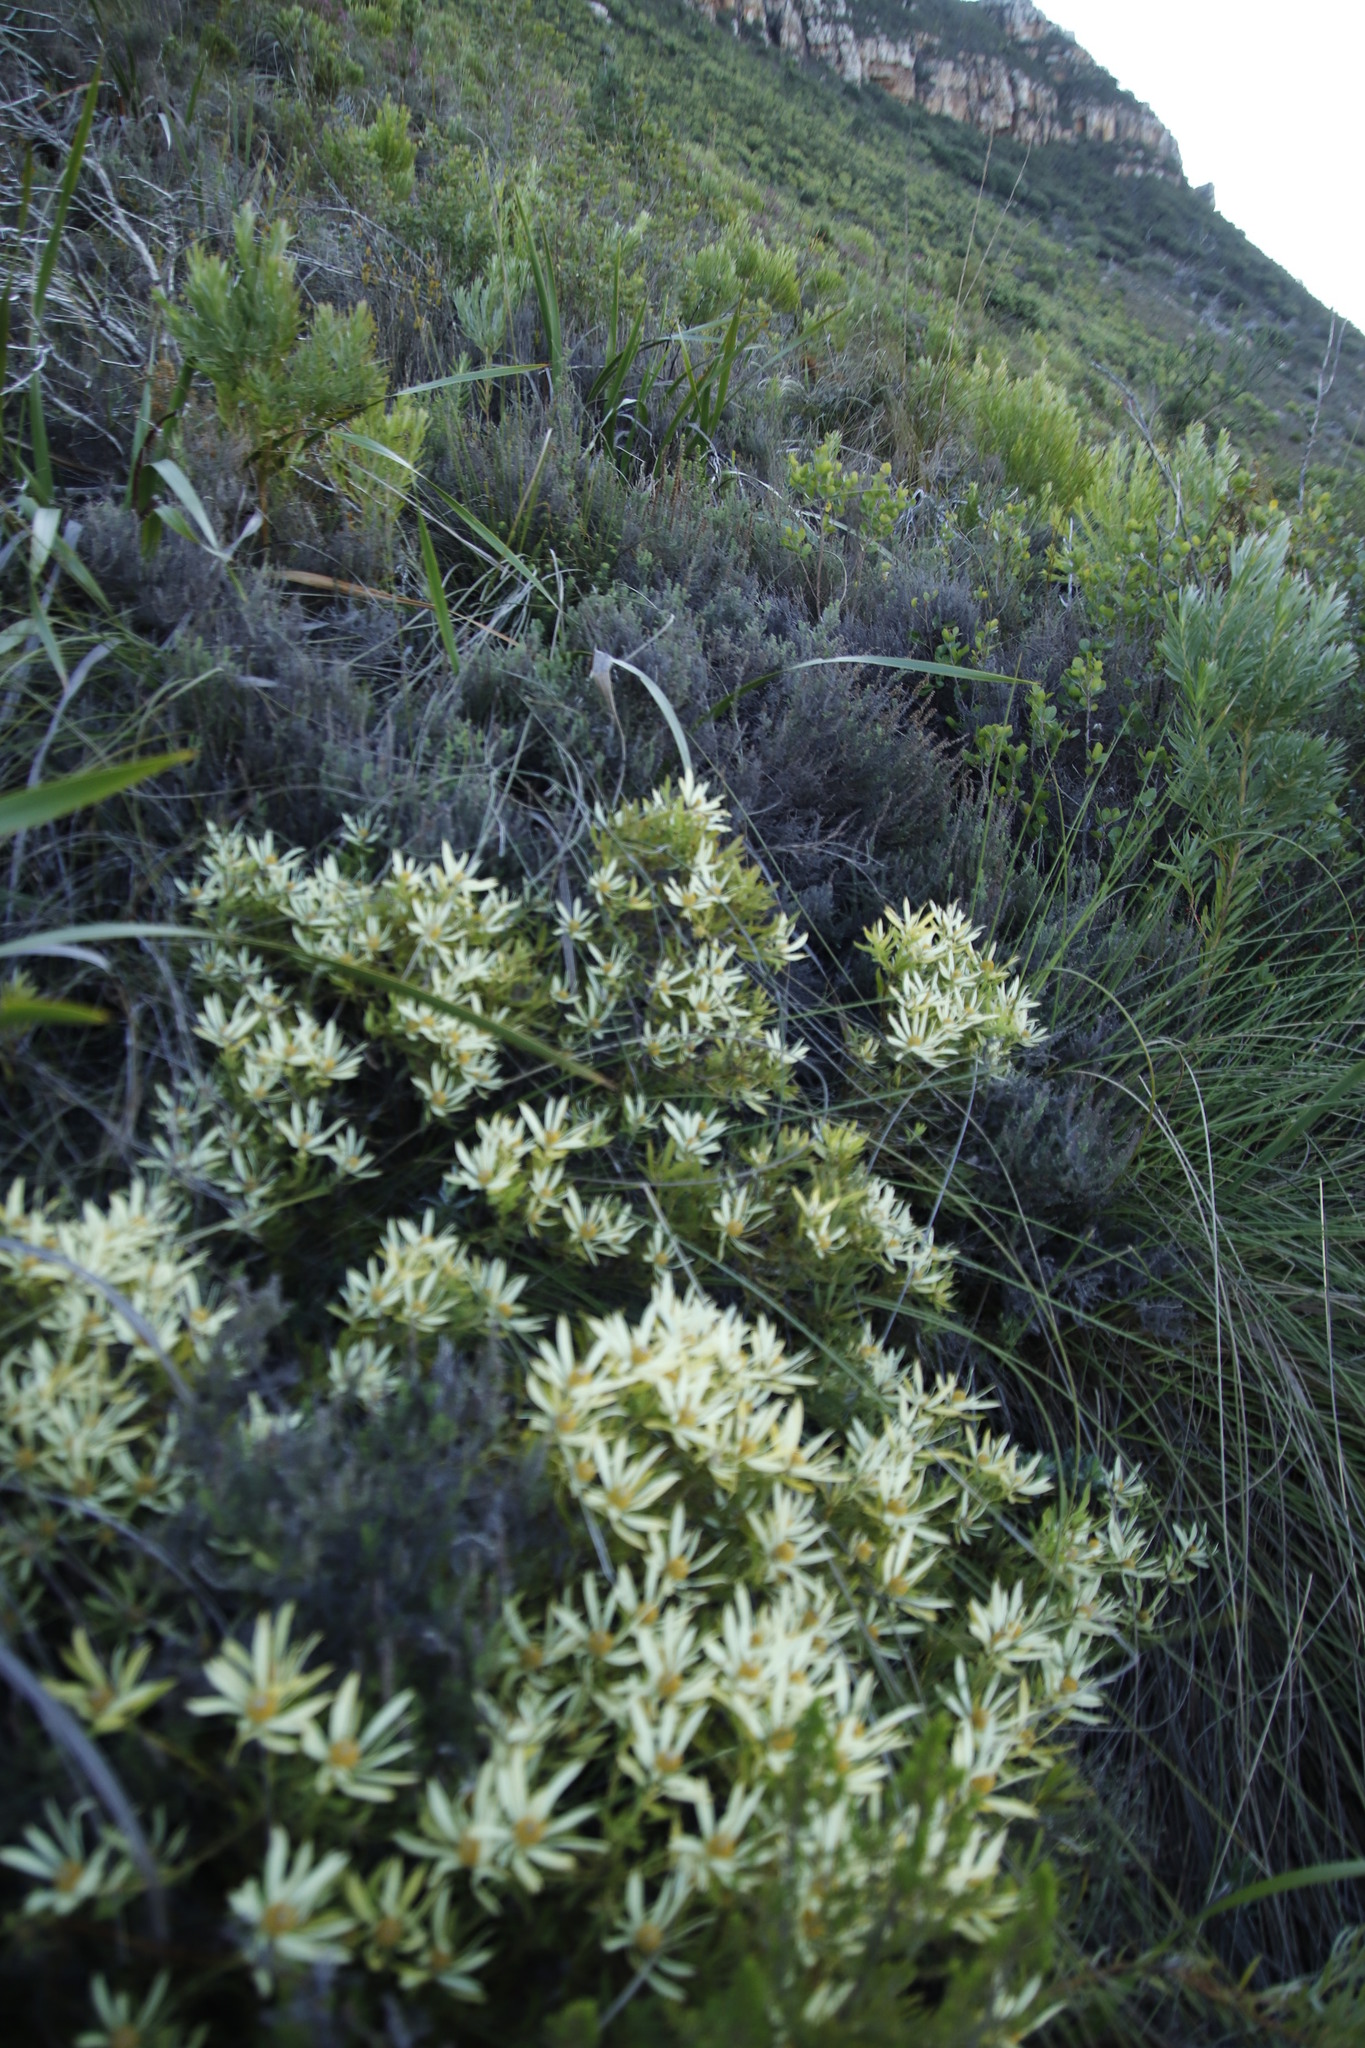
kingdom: Plantae
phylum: Tracheophyta
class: Magnoliopsida
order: Proteales
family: Proteaceae
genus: Leucadendron
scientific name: Leucadendron salignum
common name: Common sunshine conebush
